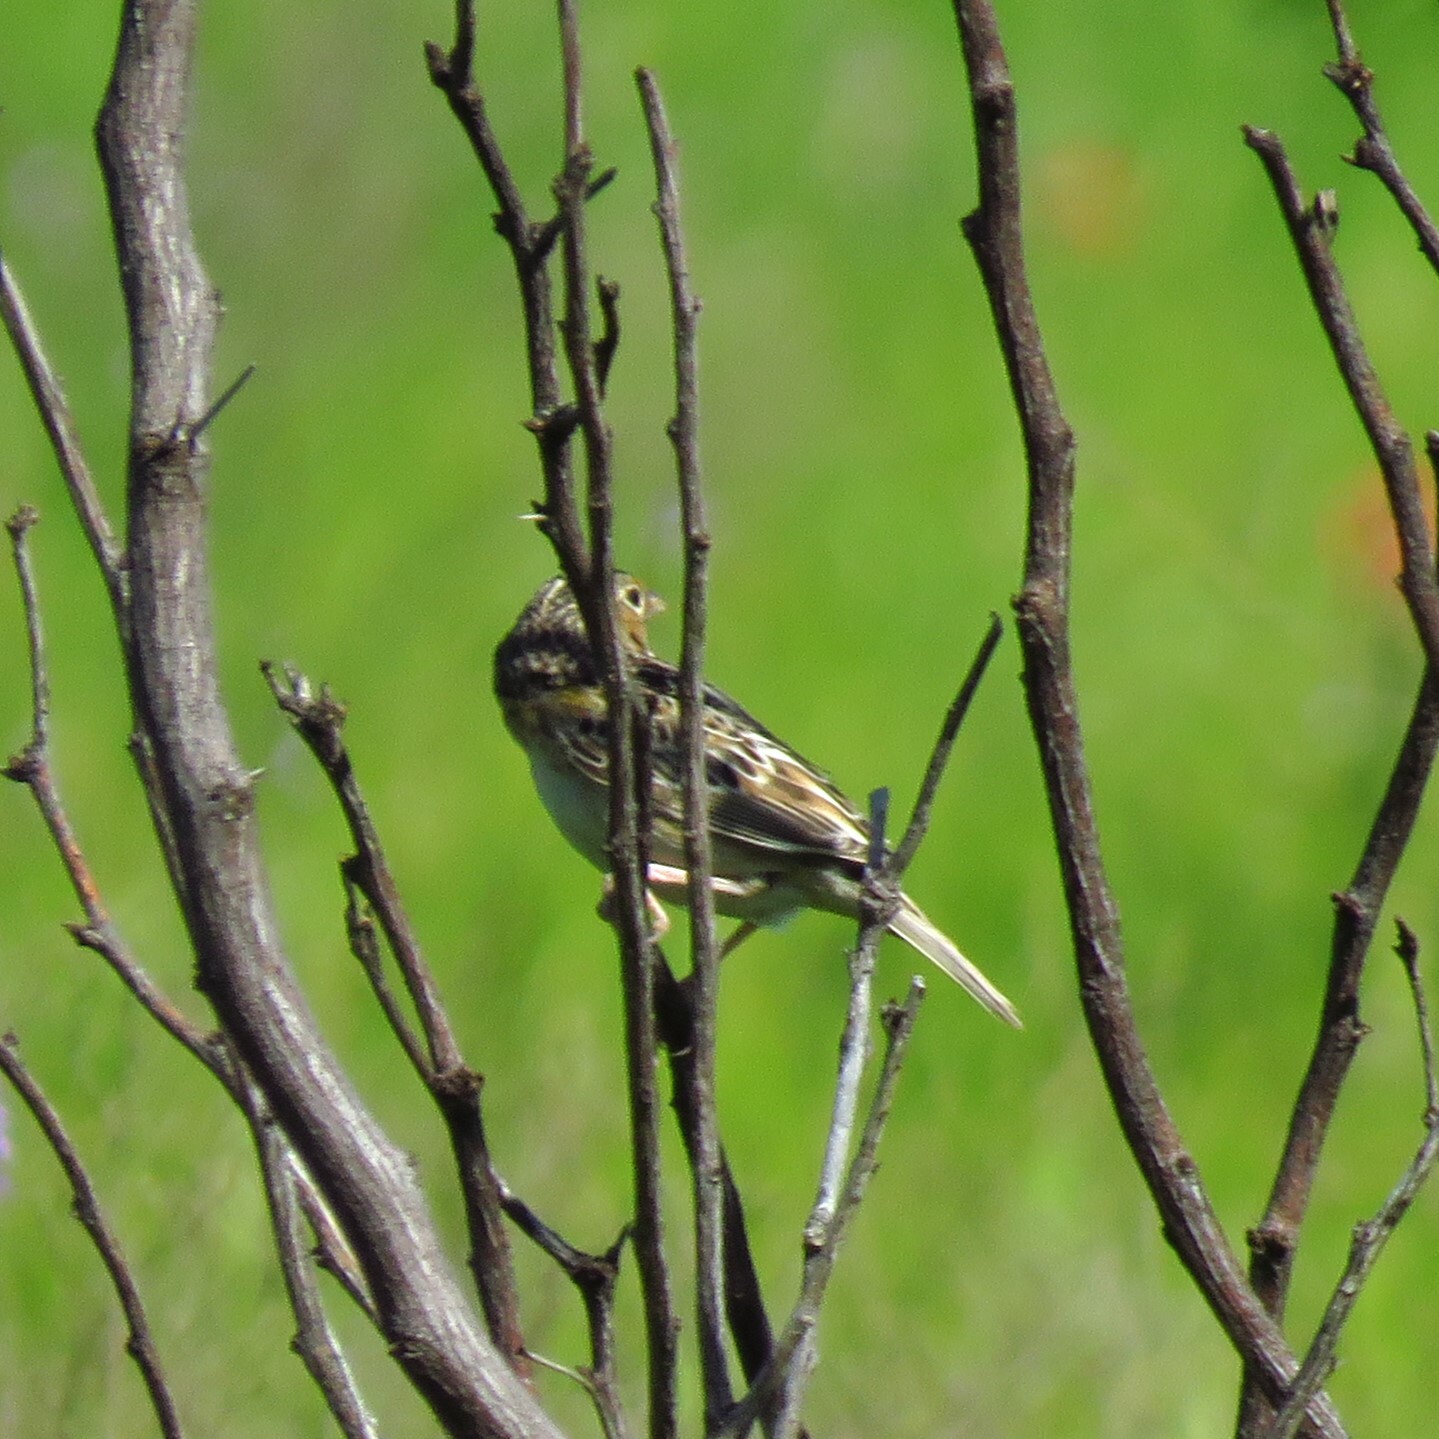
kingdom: Animalia
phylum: Chordata
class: Aves
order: Passeriformes
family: Passerellidae
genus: Ammodramus
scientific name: Ammodramus savannarum
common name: Grasshopper sparrow
